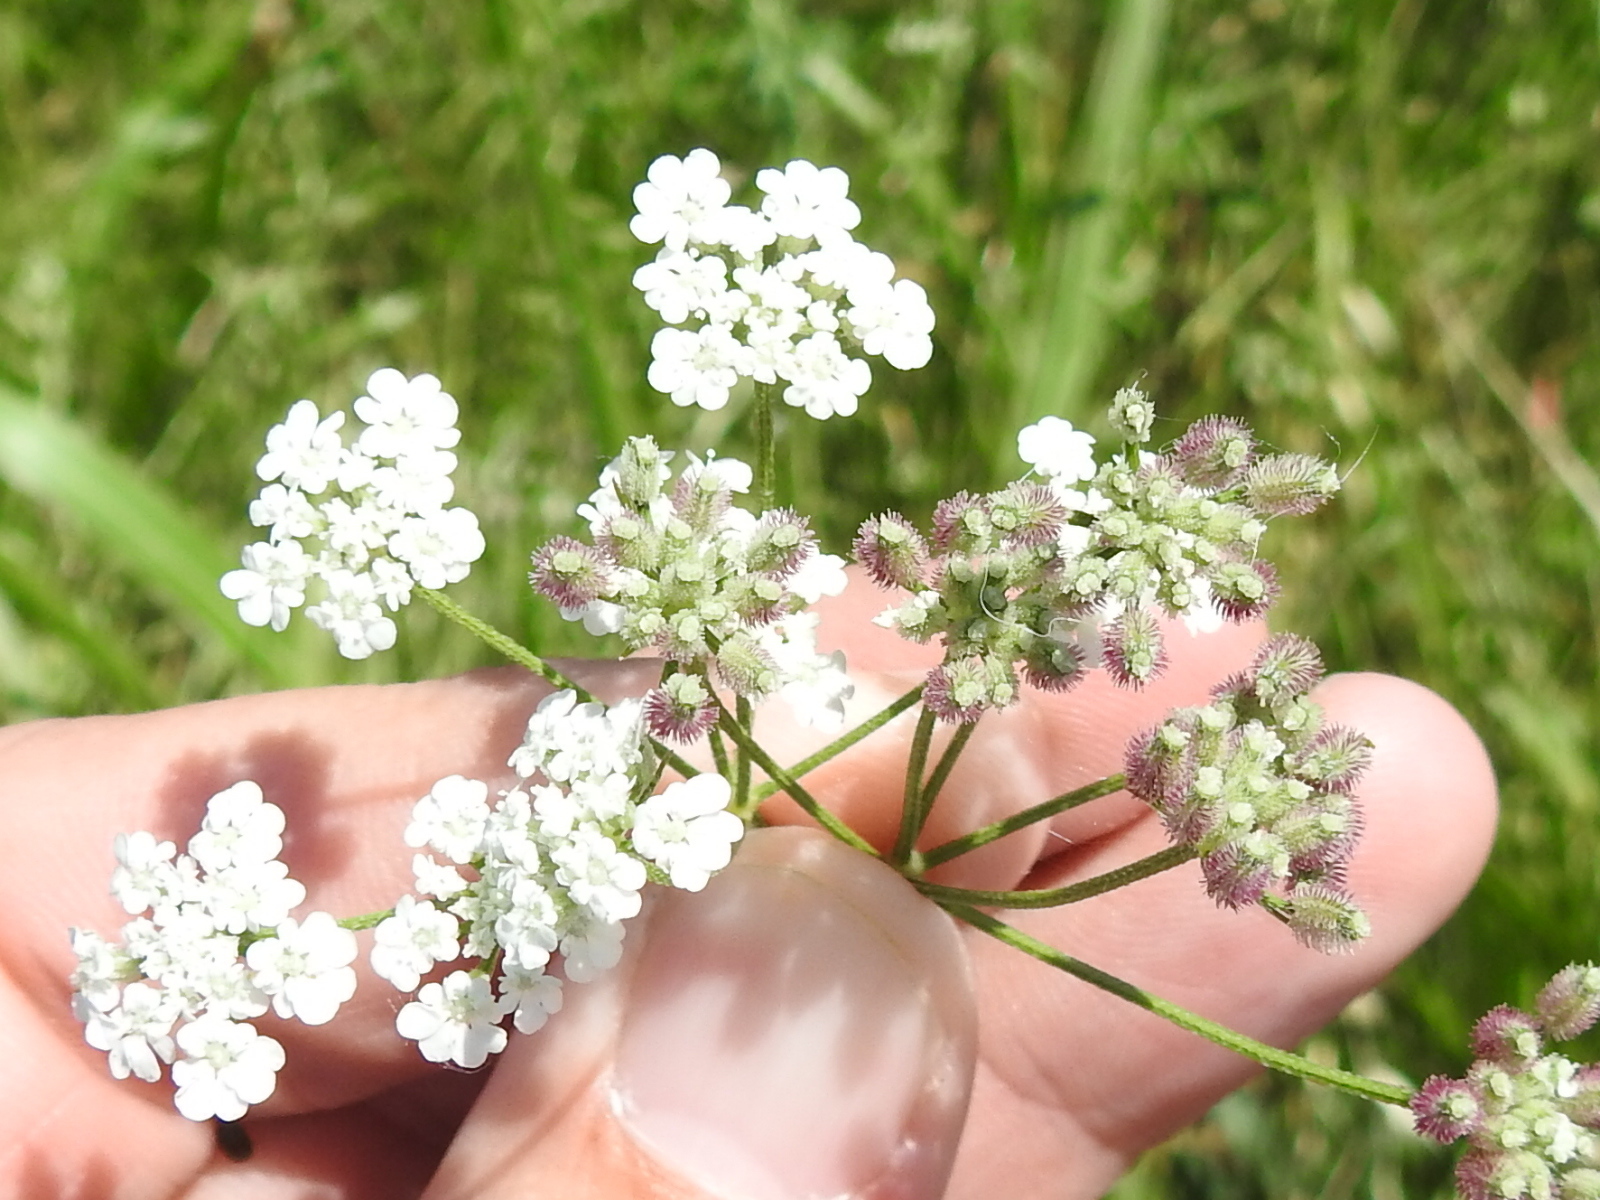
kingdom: Plantae
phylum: Tracheophyta
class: Magnoliopsida
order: Apiales
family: Apiaceae
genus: Torilis
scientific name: Torilis arvensis
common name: Spreading hedge-parsley
